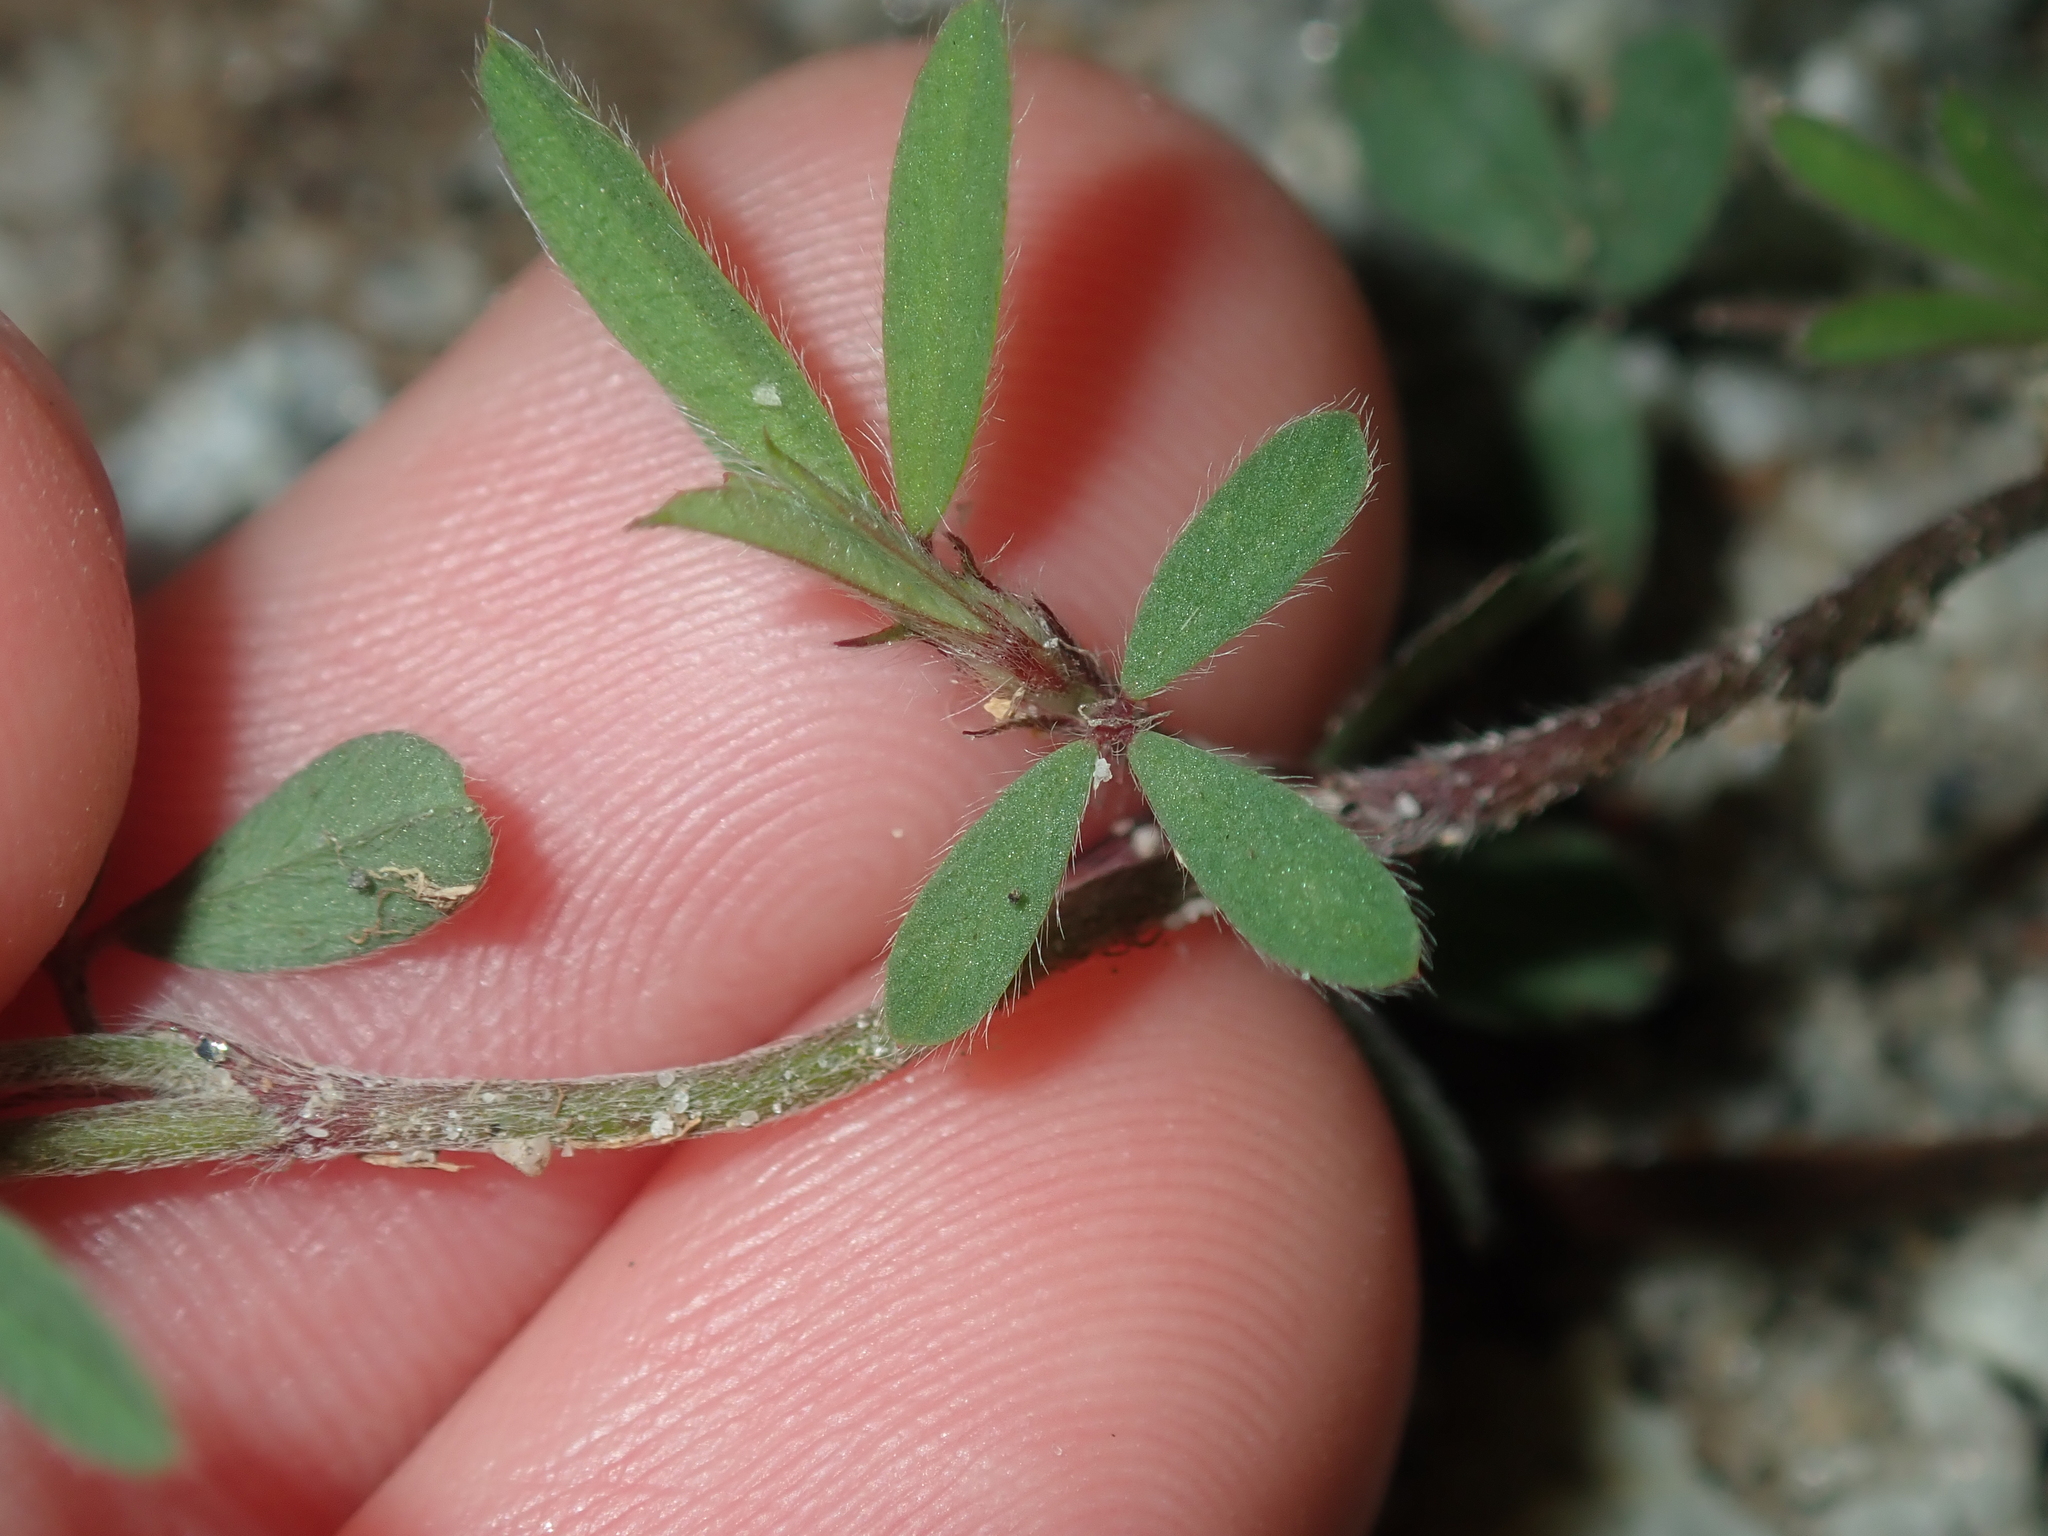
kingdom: Plantae
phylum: Tracheophyta
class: Magnoliopsida
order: Fabales
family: Fabaceae
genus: Trifolium
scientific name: Trifolium arvense
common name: Hare's-foot clover
